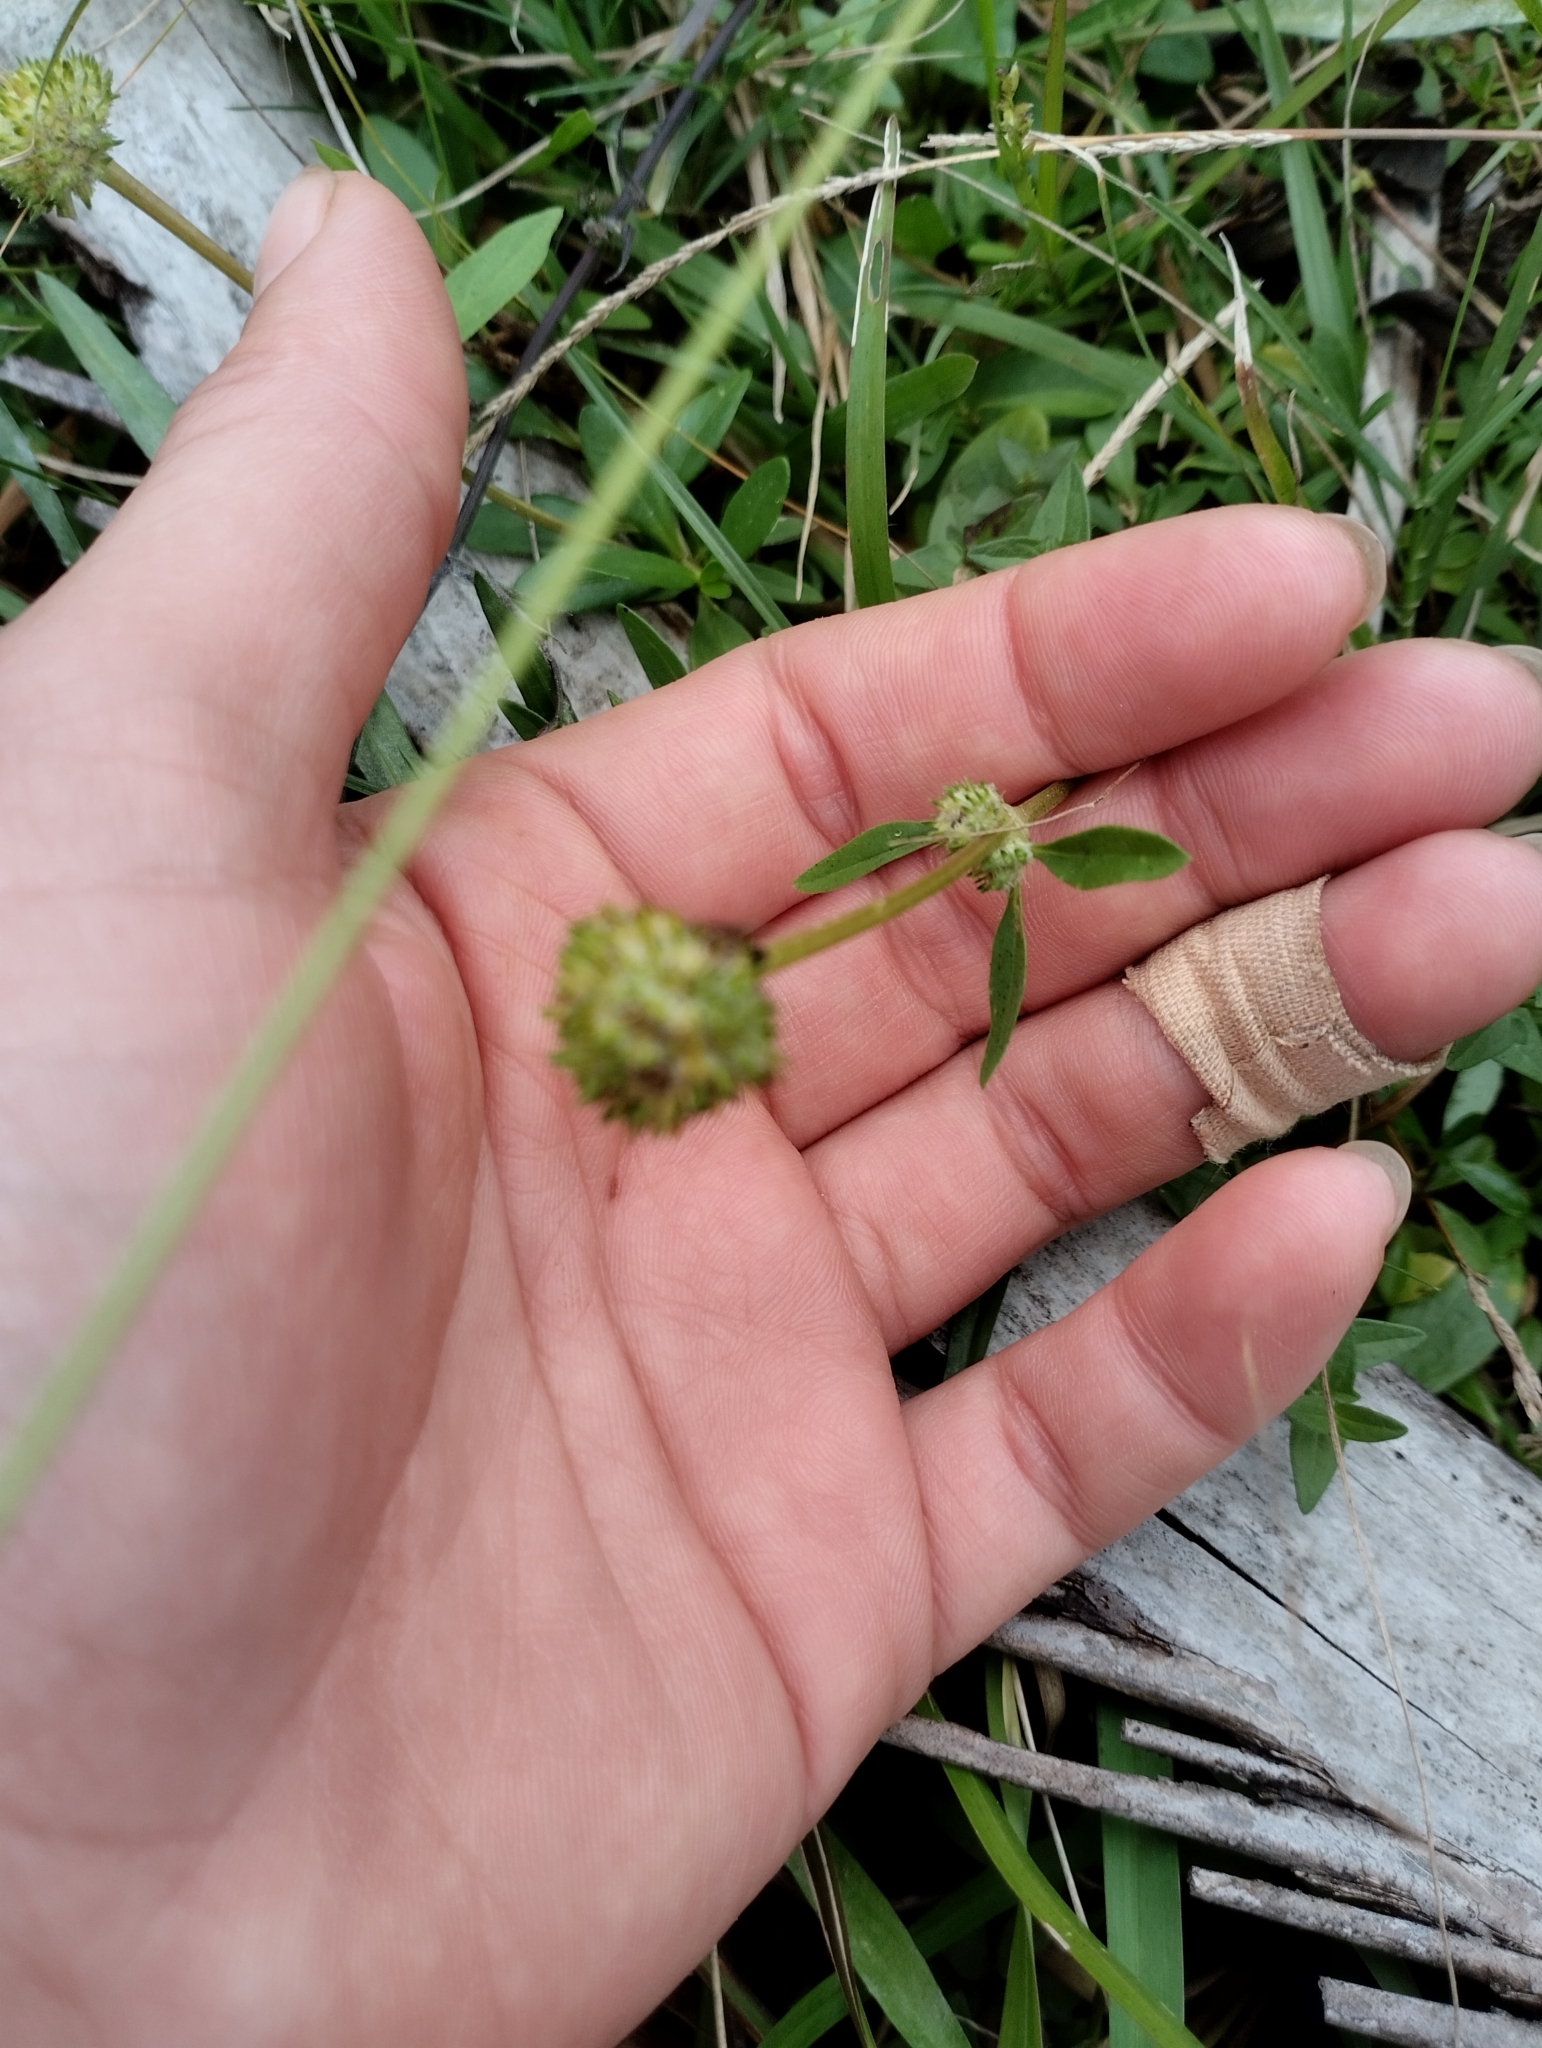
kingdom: Plantae
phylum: Tracheophyta
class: Magnoliopsida
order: Gentianales
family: Rubiaceae
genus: Spermacoce
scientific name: Spermacoce verticillata
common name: Shrubby false buttonweed
